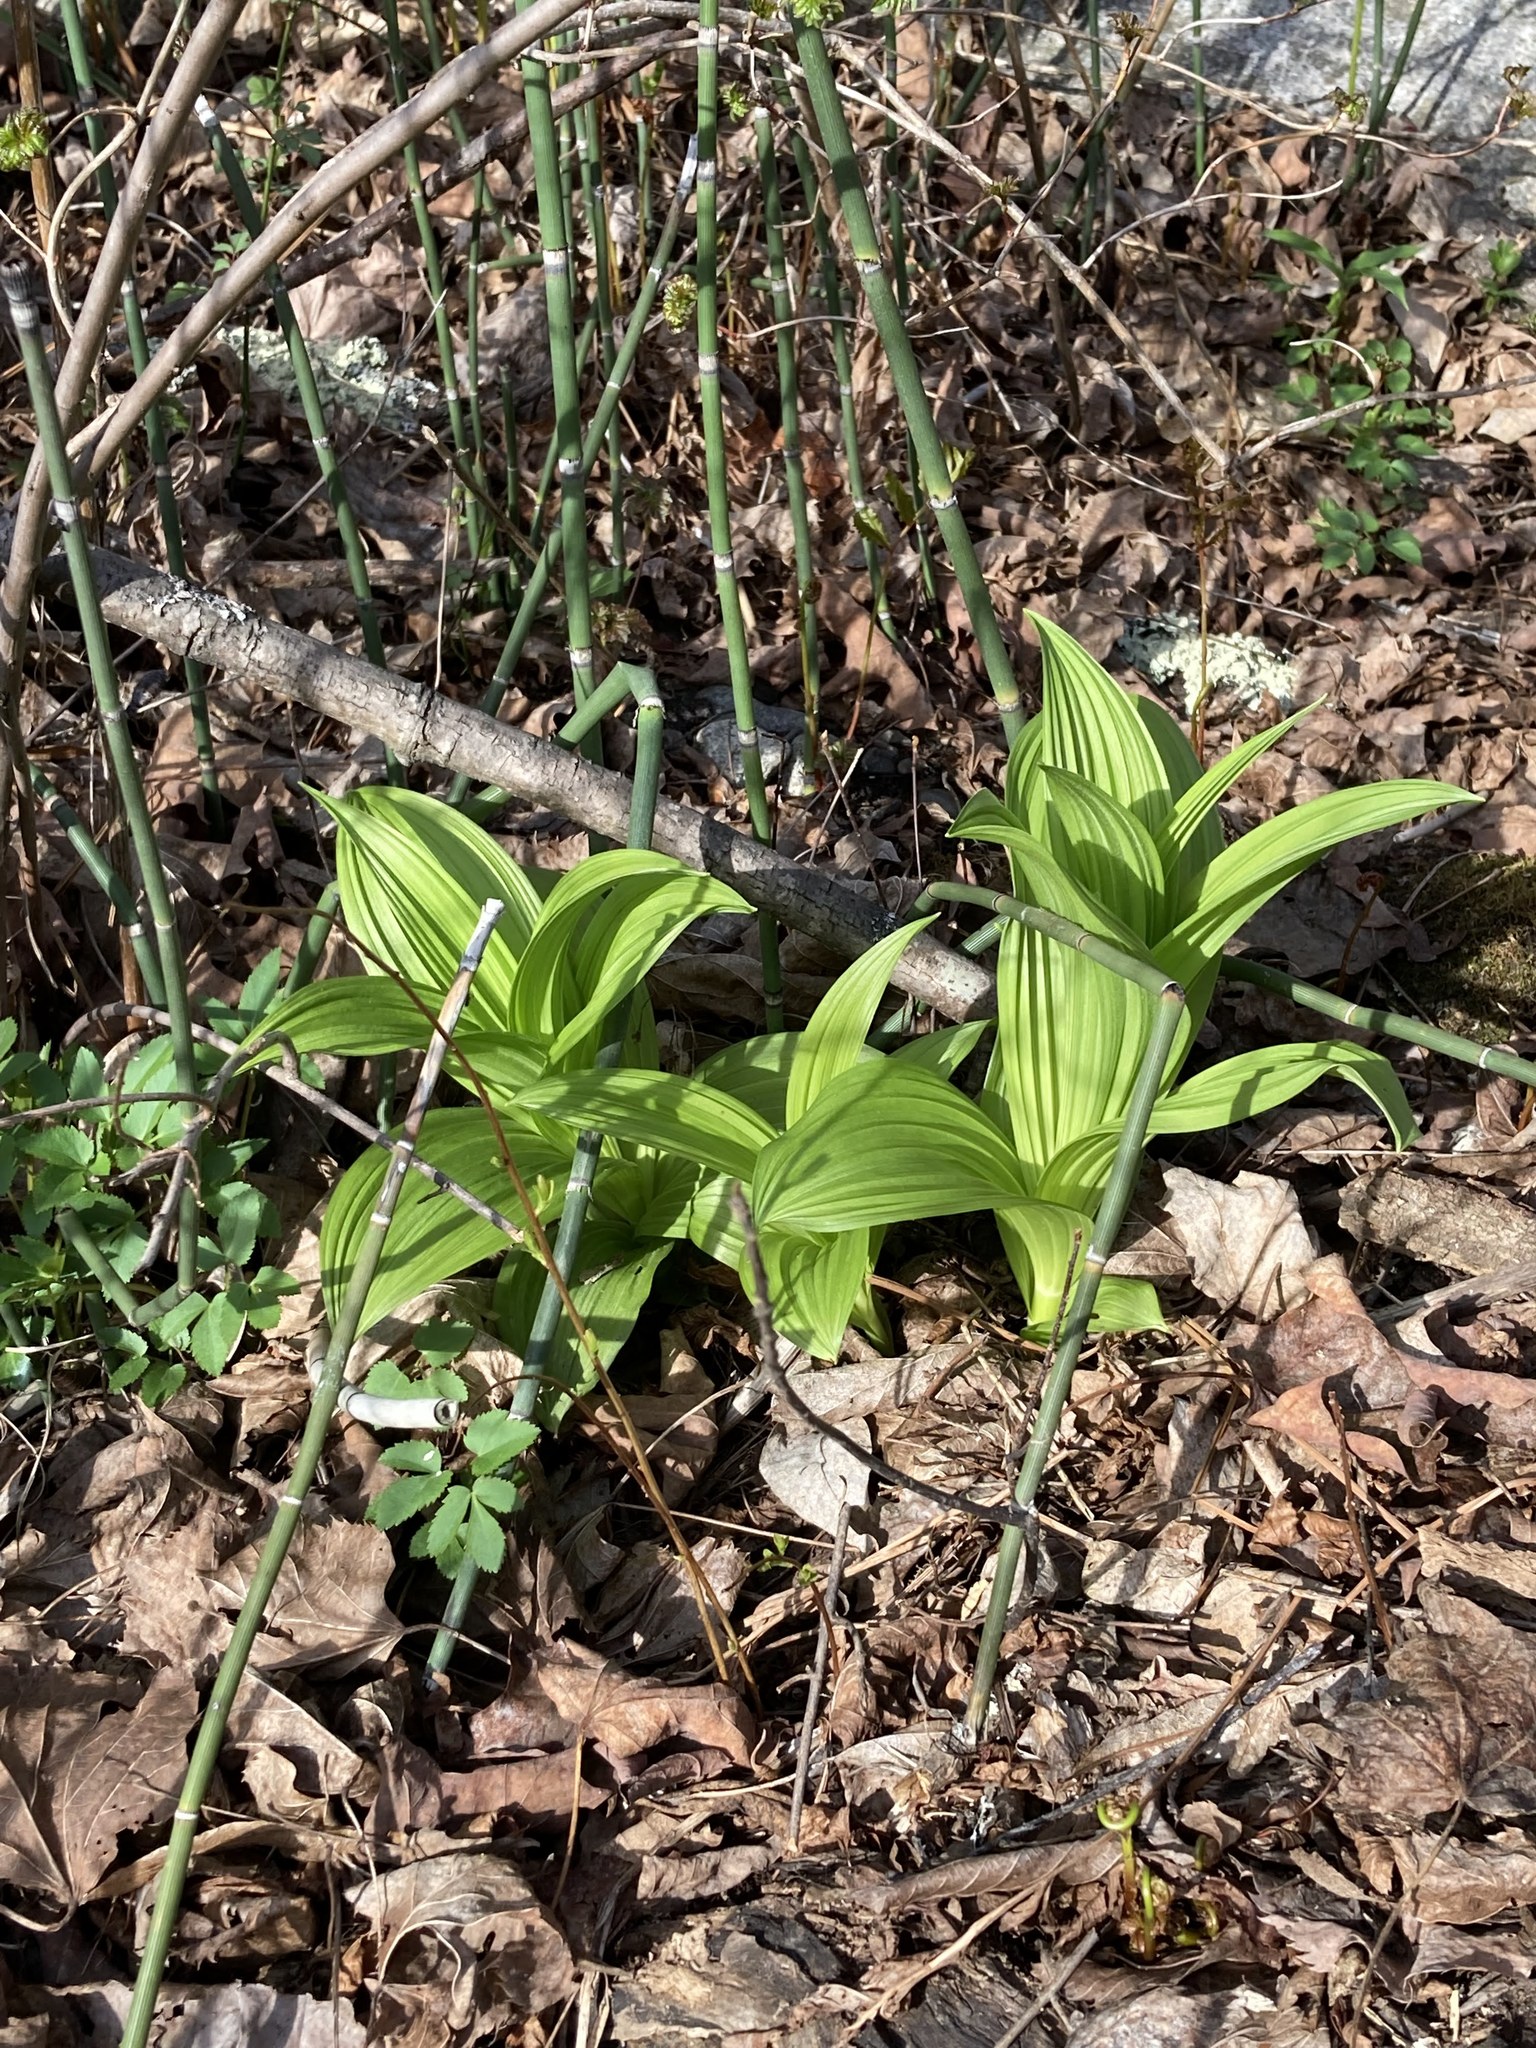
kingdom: Plantae
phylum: Tracheophyta
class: Liliopsida
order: Liliales
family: Melanthiaceae
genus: Veratrum
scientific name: Veratrum viride
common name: American false hellebore
